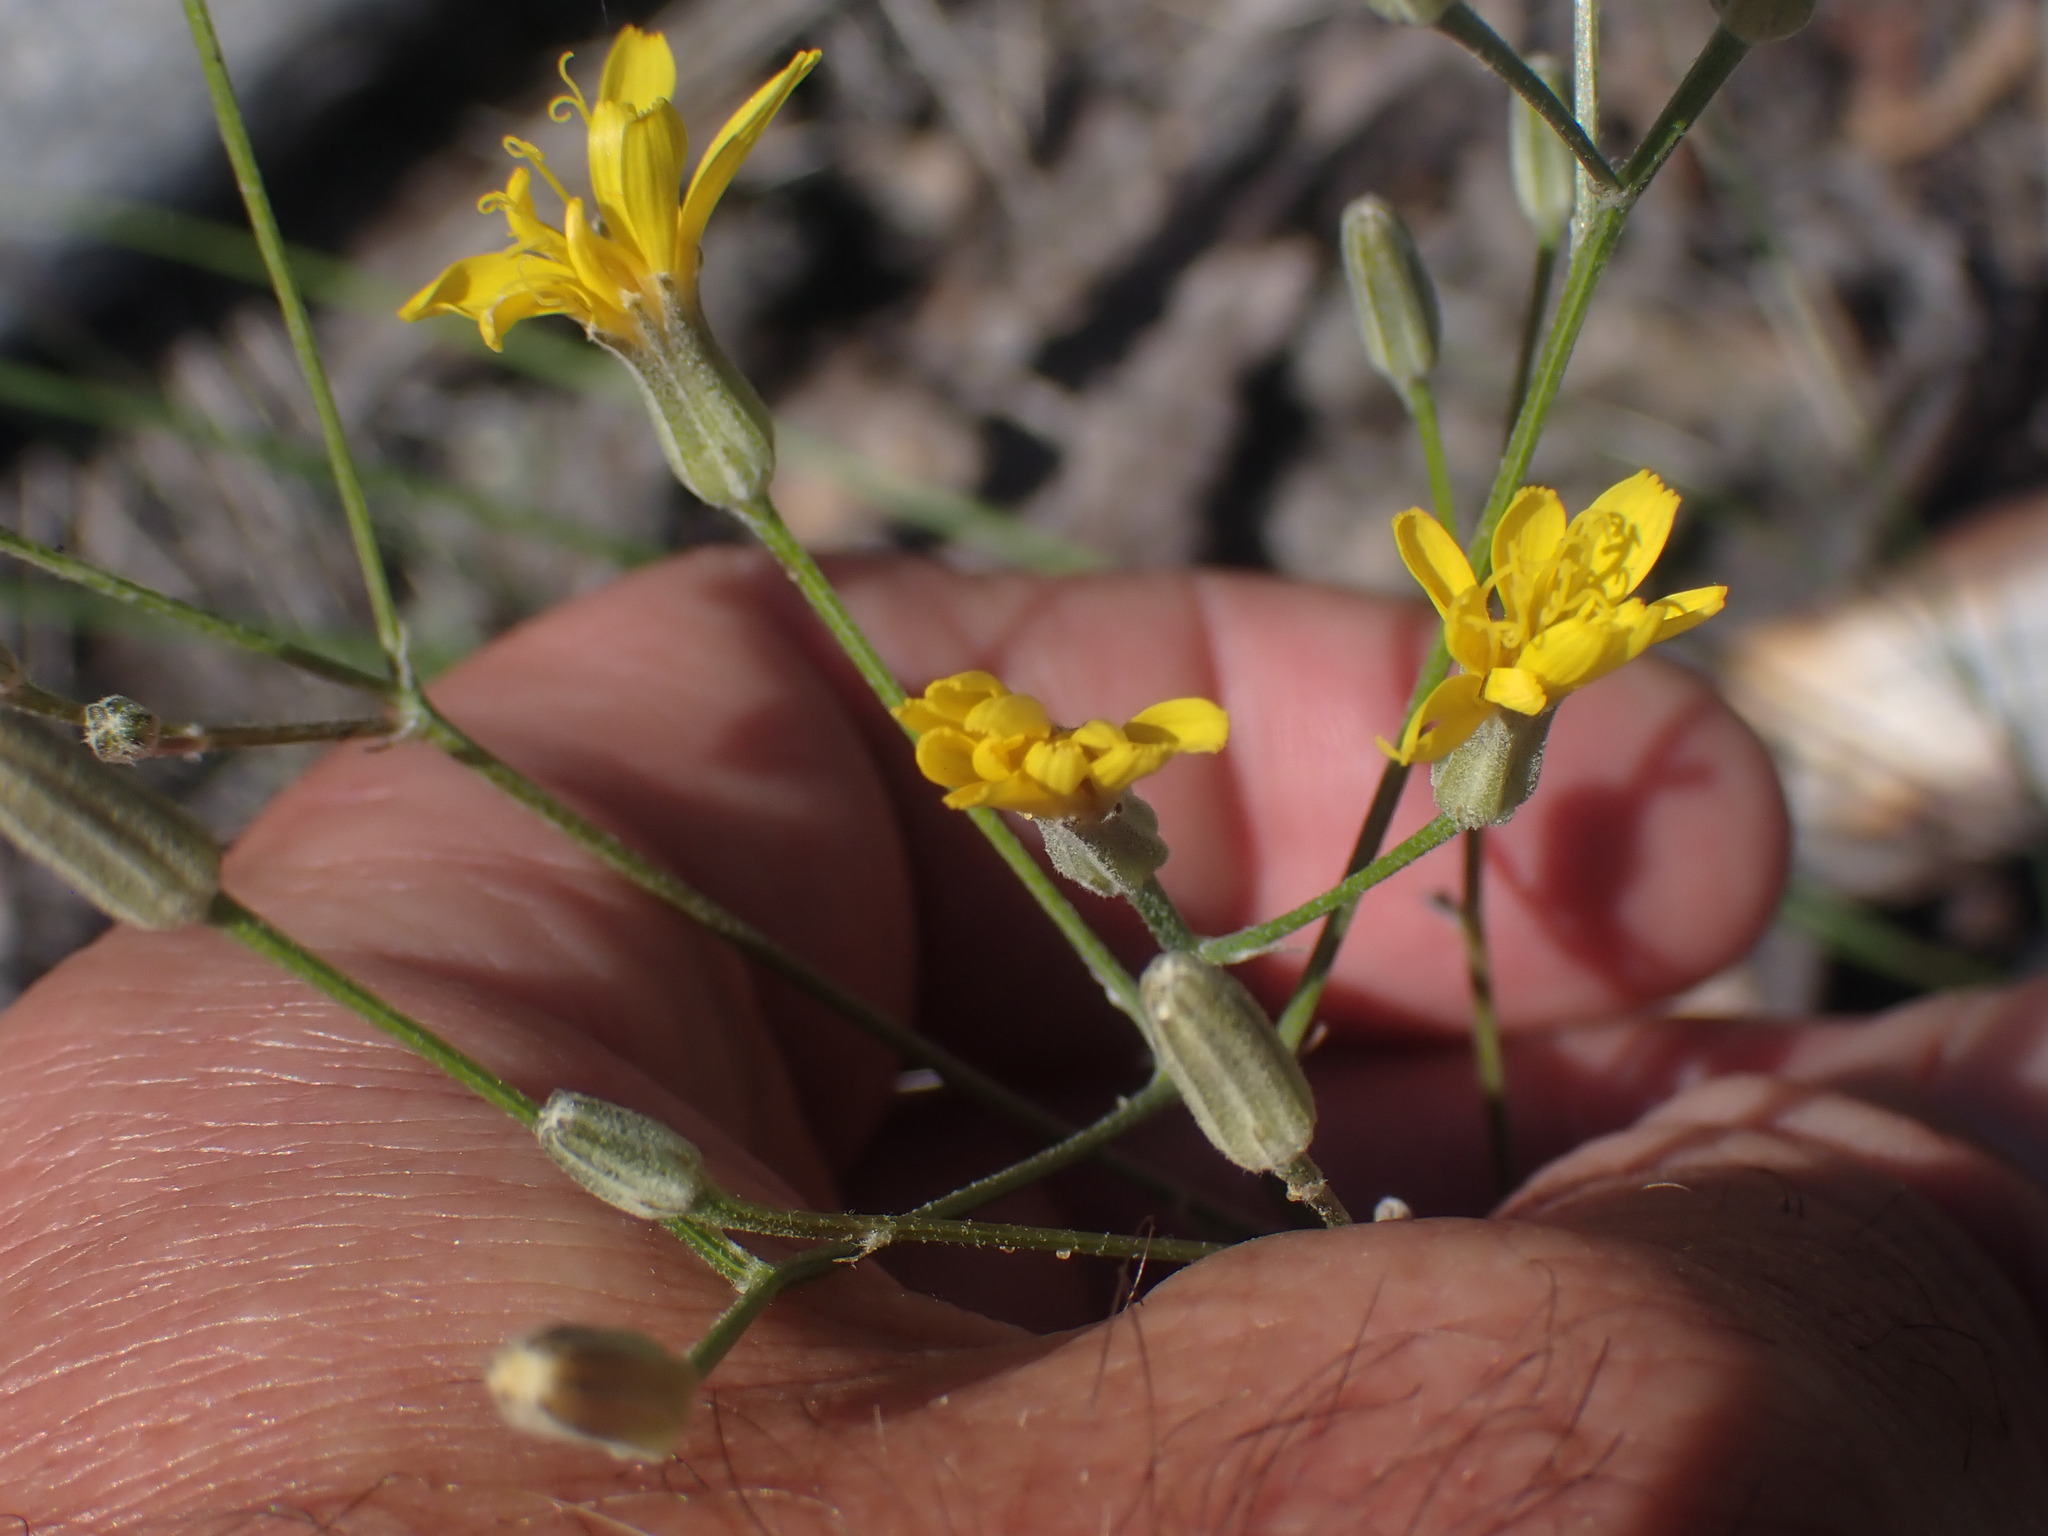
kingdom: Plantae
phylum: Tracheophyta
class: Magnoliopsida
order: Asterales
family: Asteraceae
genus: Crepis
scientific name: Crepis atribarba
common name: Dark hawk's-beard
